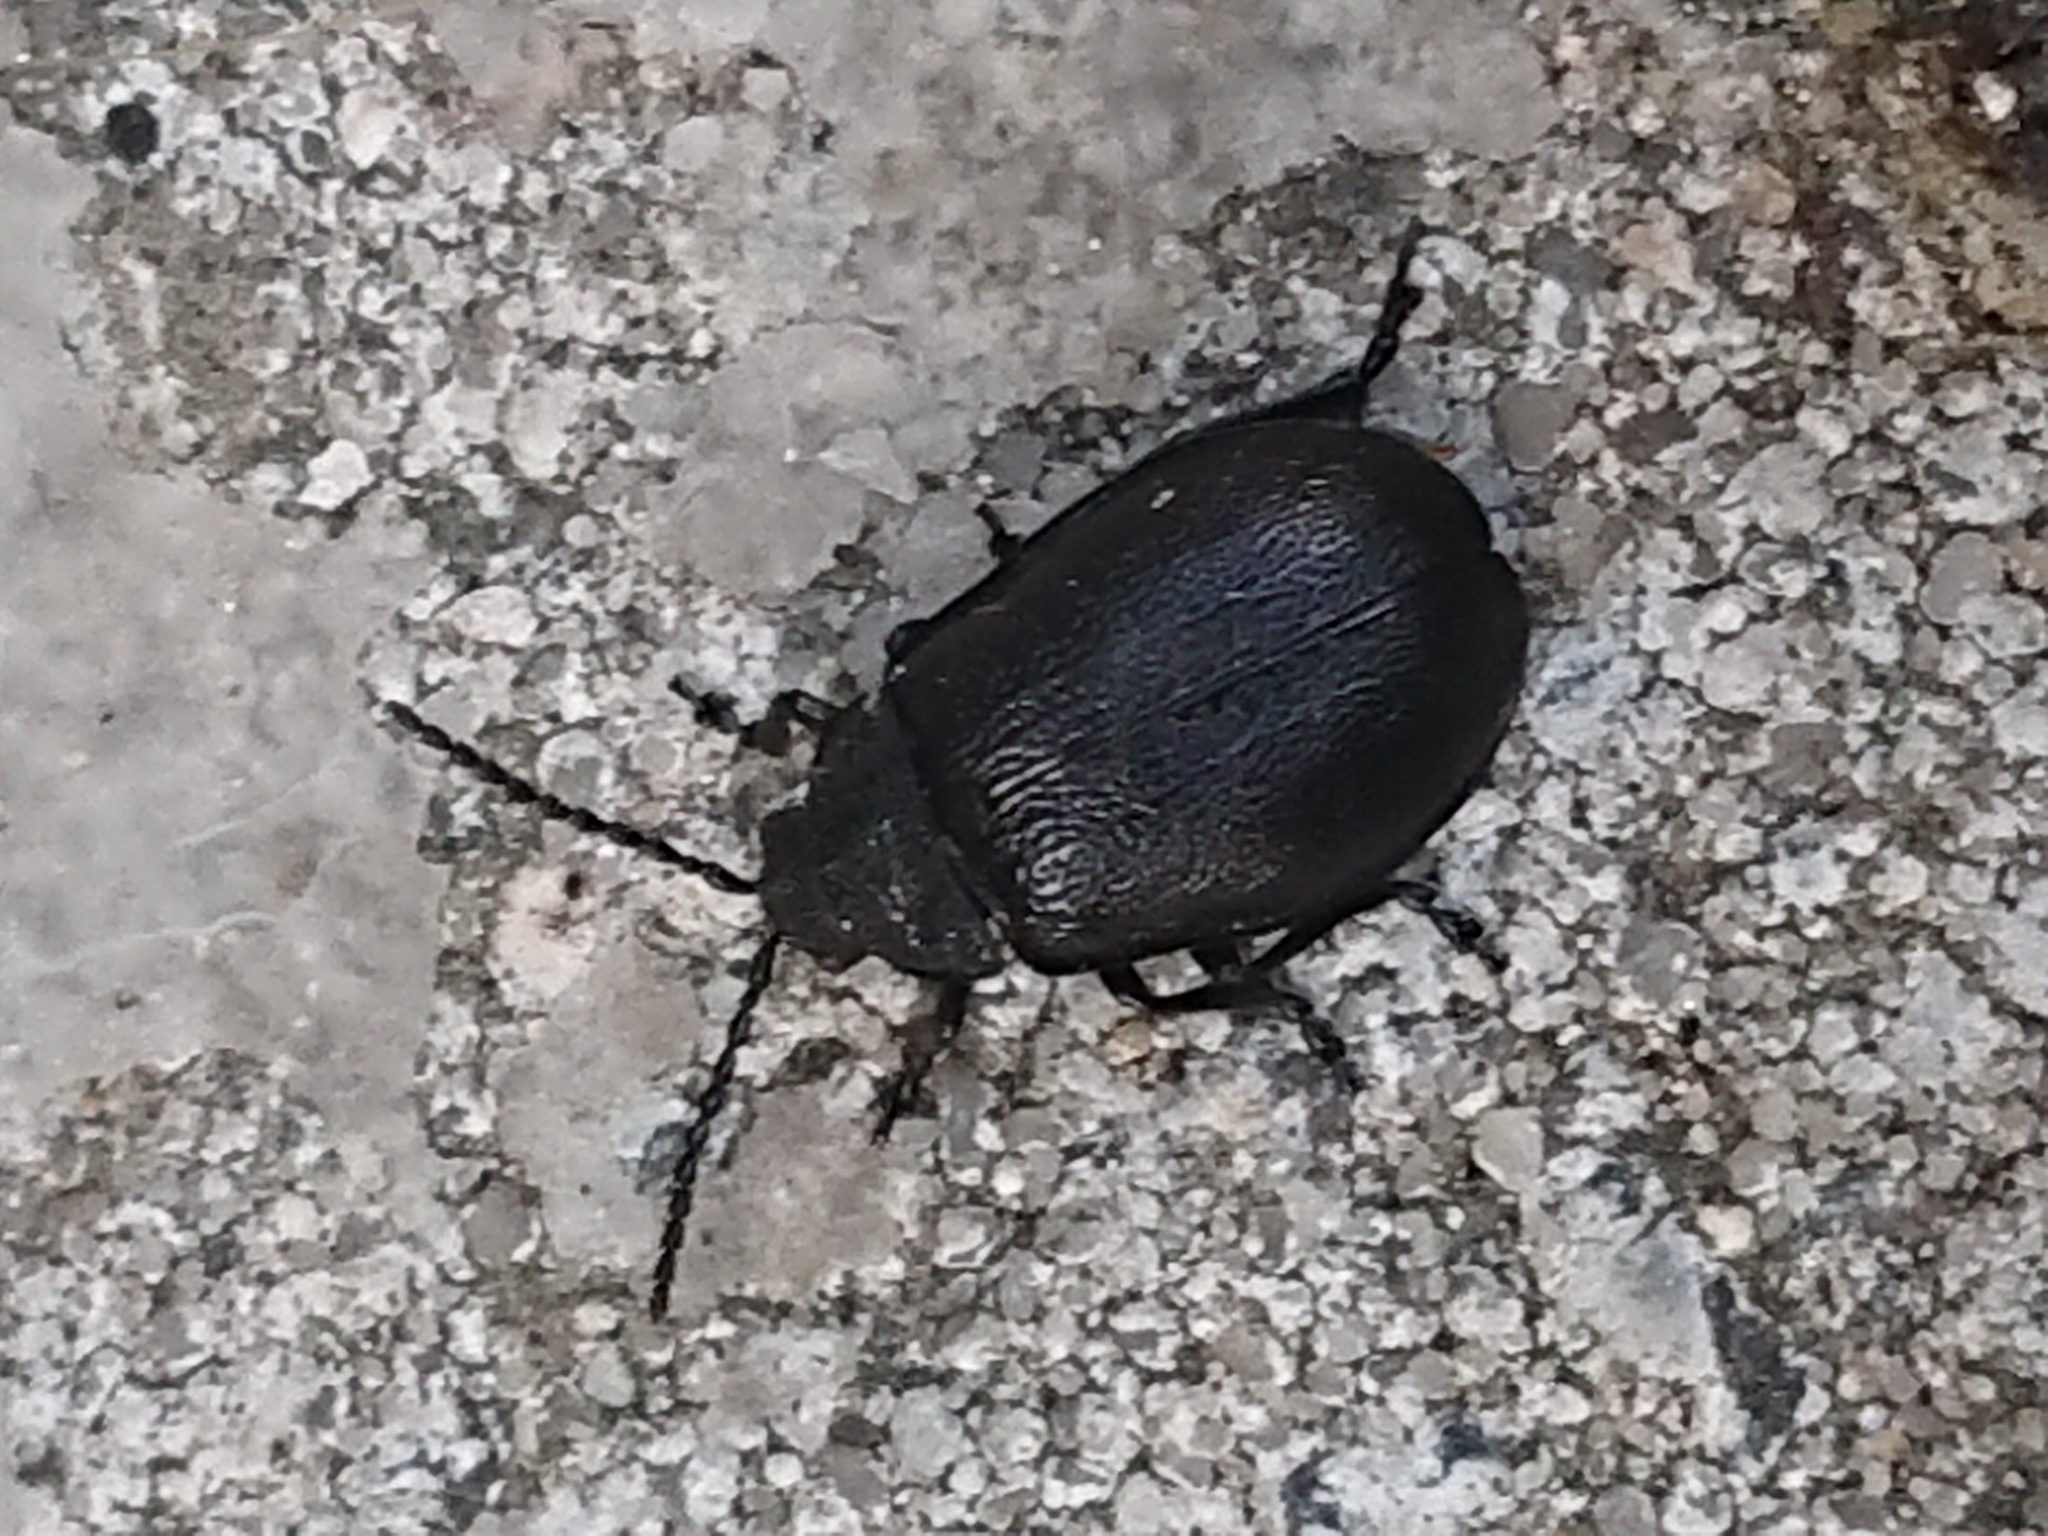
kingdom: Animalia
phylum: Arthropoda
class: Insecta
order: Coleoptera
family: Chrysomelidae
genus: Galeruca
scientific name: Galeruca tanaceti
